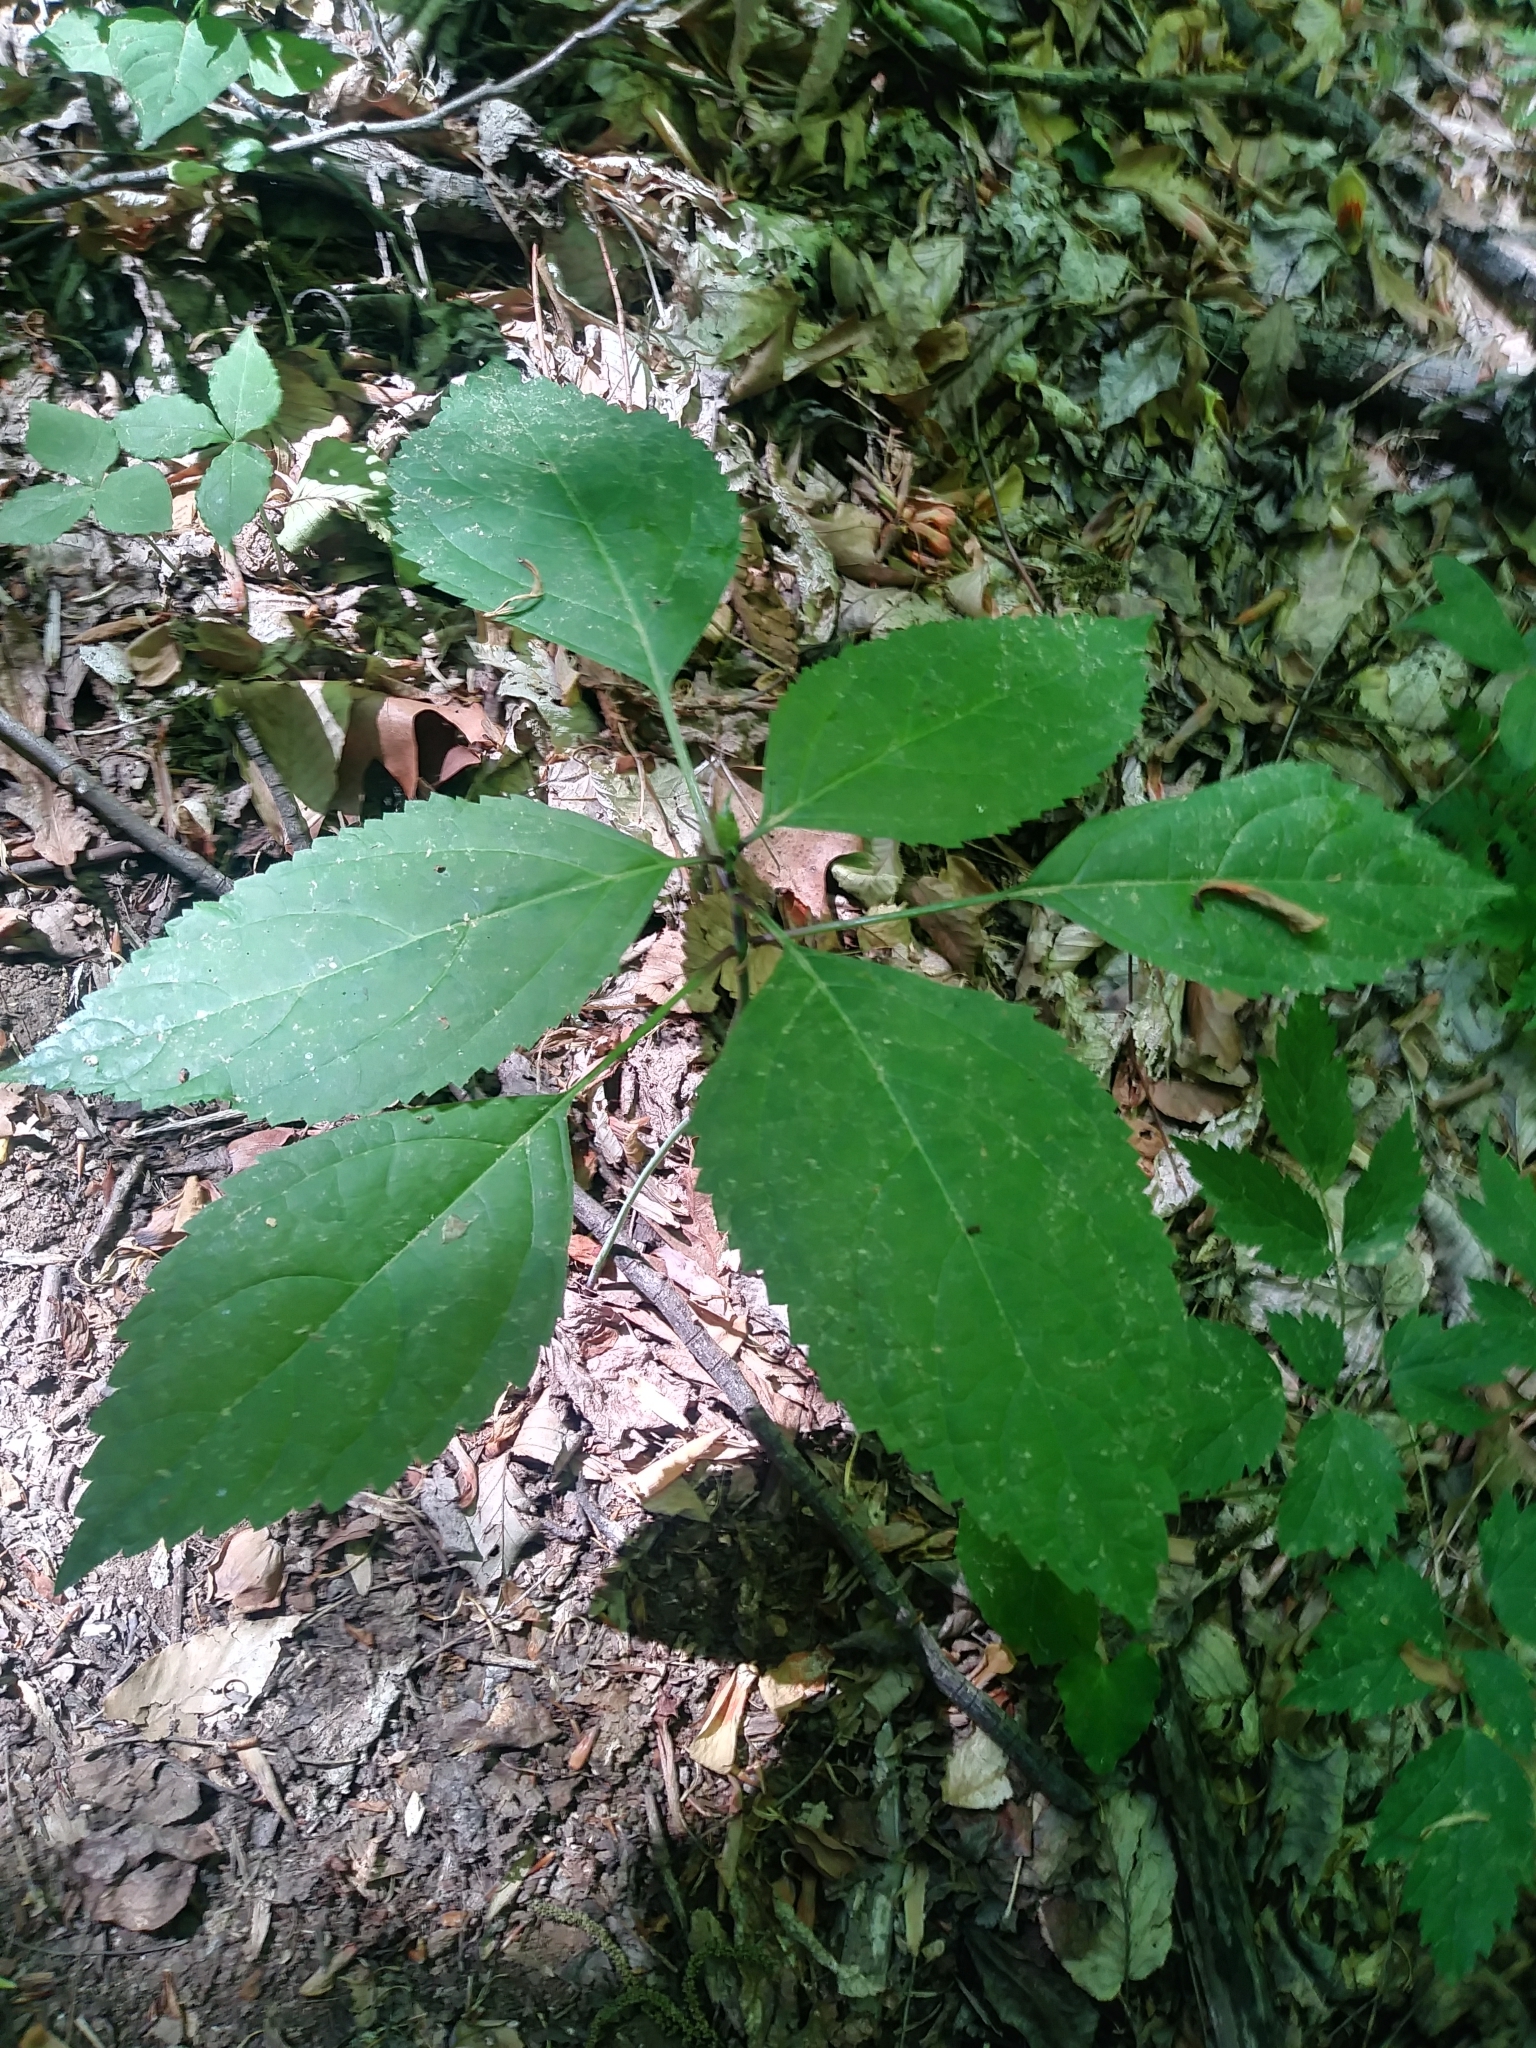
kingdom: Plantae
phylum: Tracheophyta
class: Magnoliopsida
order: Lamiales
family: Lamiaceae
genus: Collinsonia
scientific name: Collinsonia canadensis
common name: Northern horsebalm
